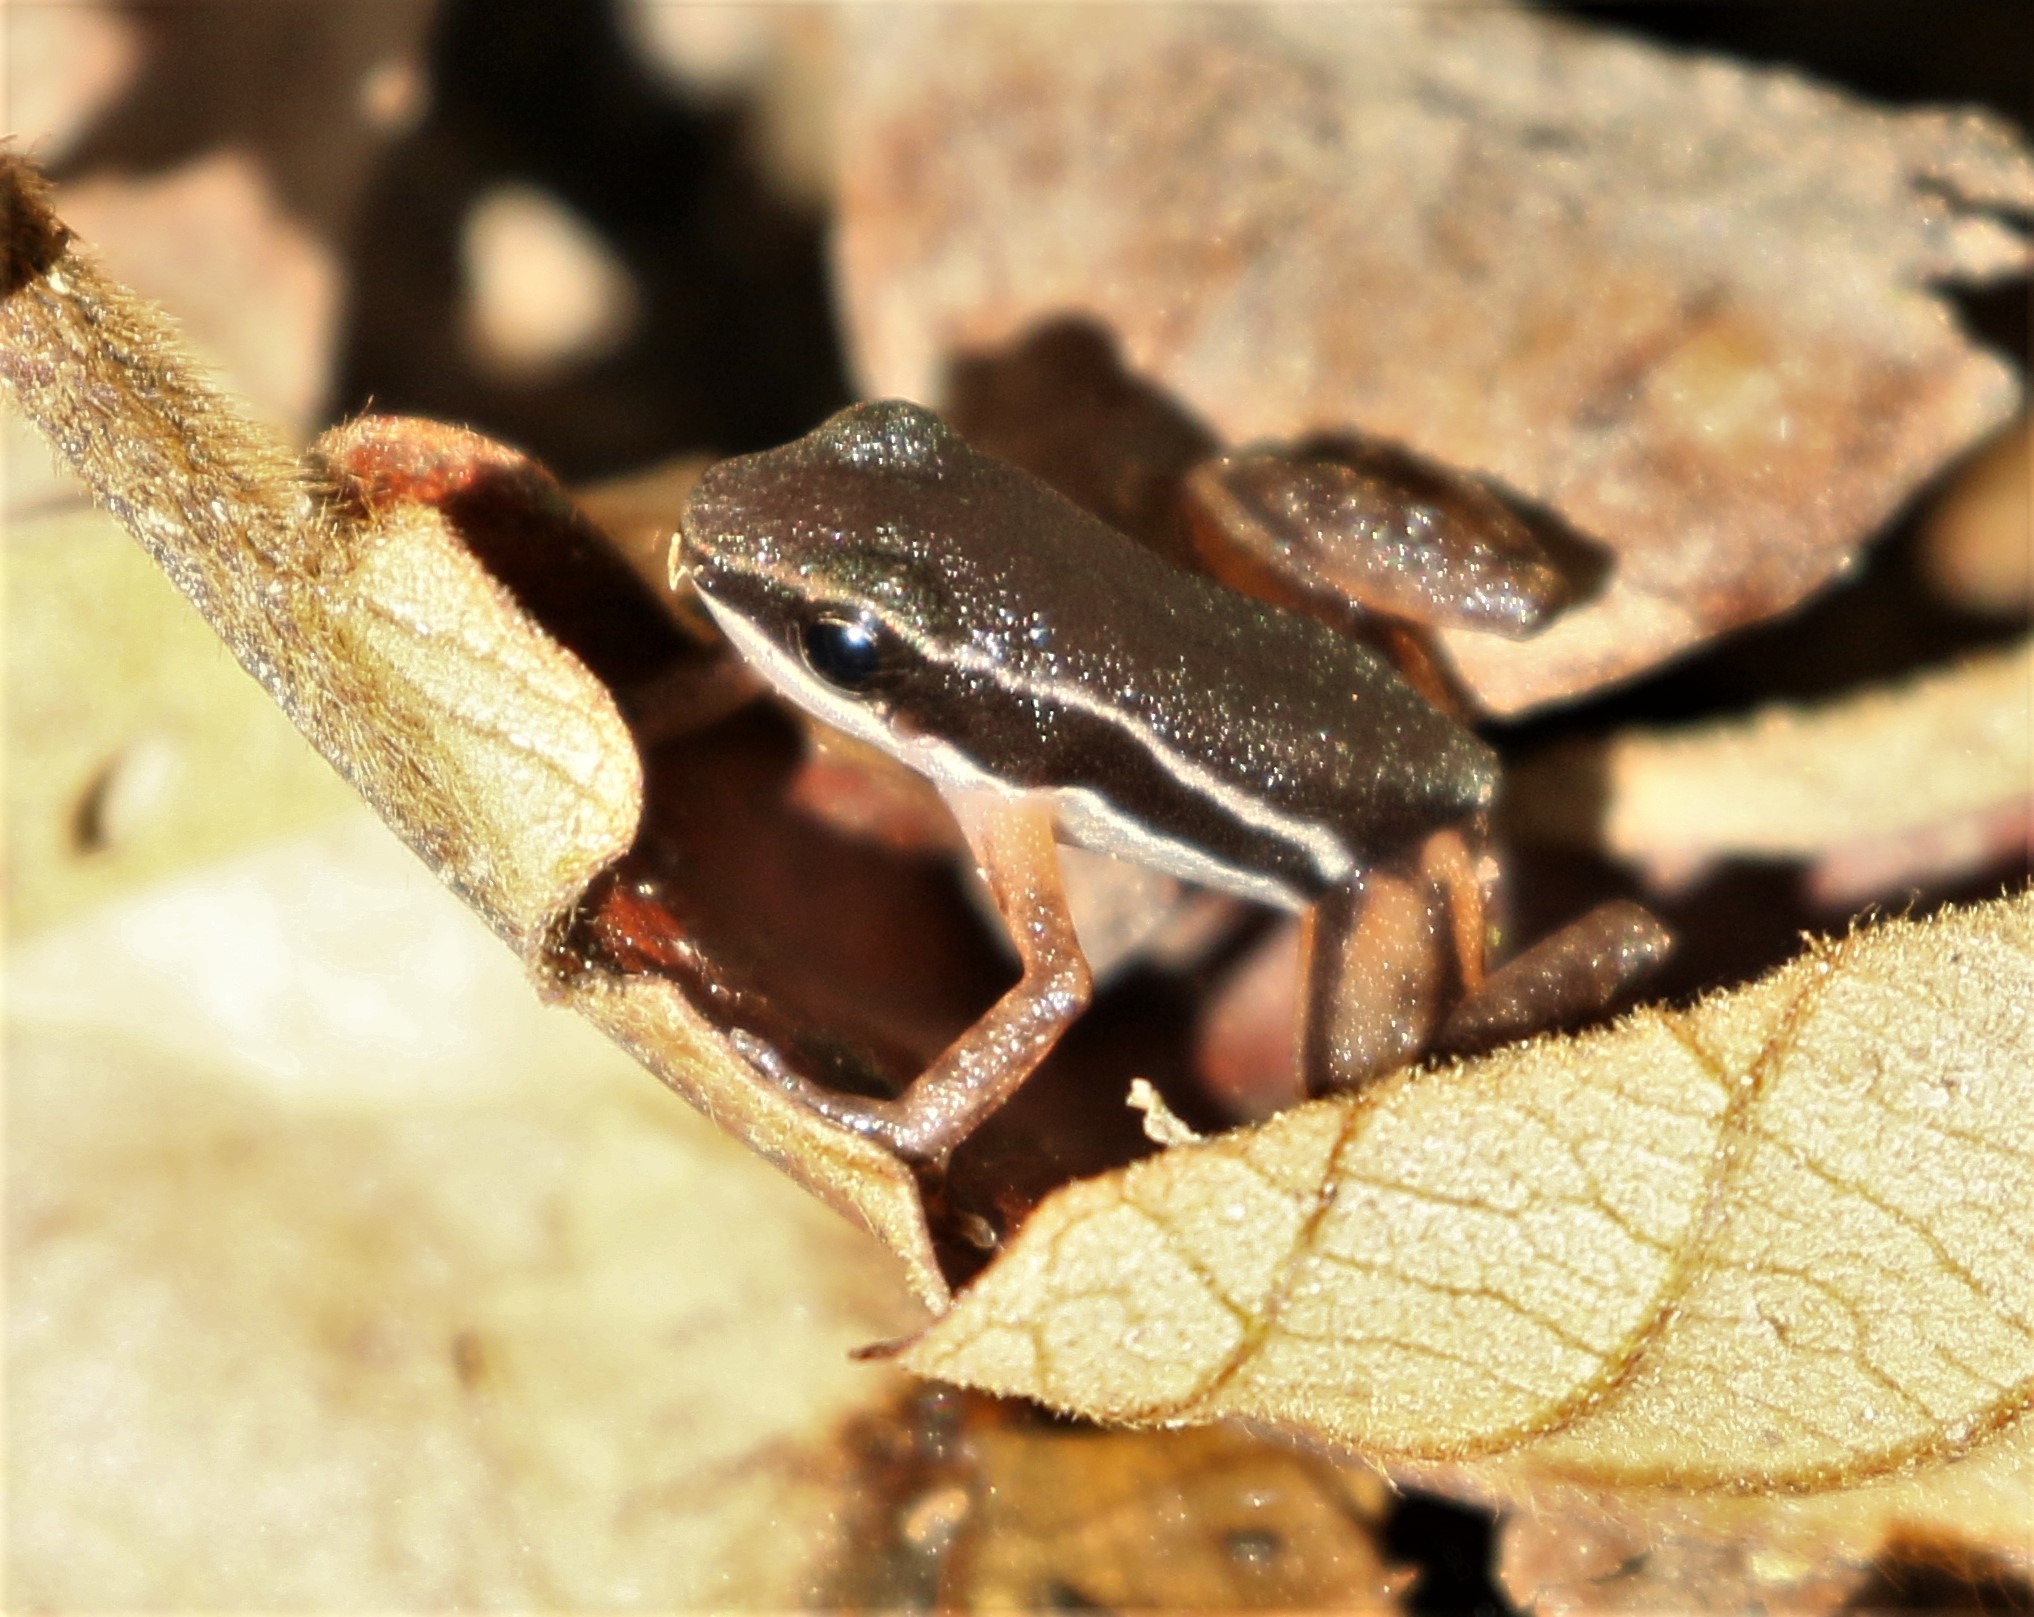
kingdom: Animalia
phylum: Chordata
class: Amphibia
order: Anura
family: Dendrobatidae
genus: Silverstoneia
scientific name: Silverstoneia flotator
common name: Rainforest rocket frog
